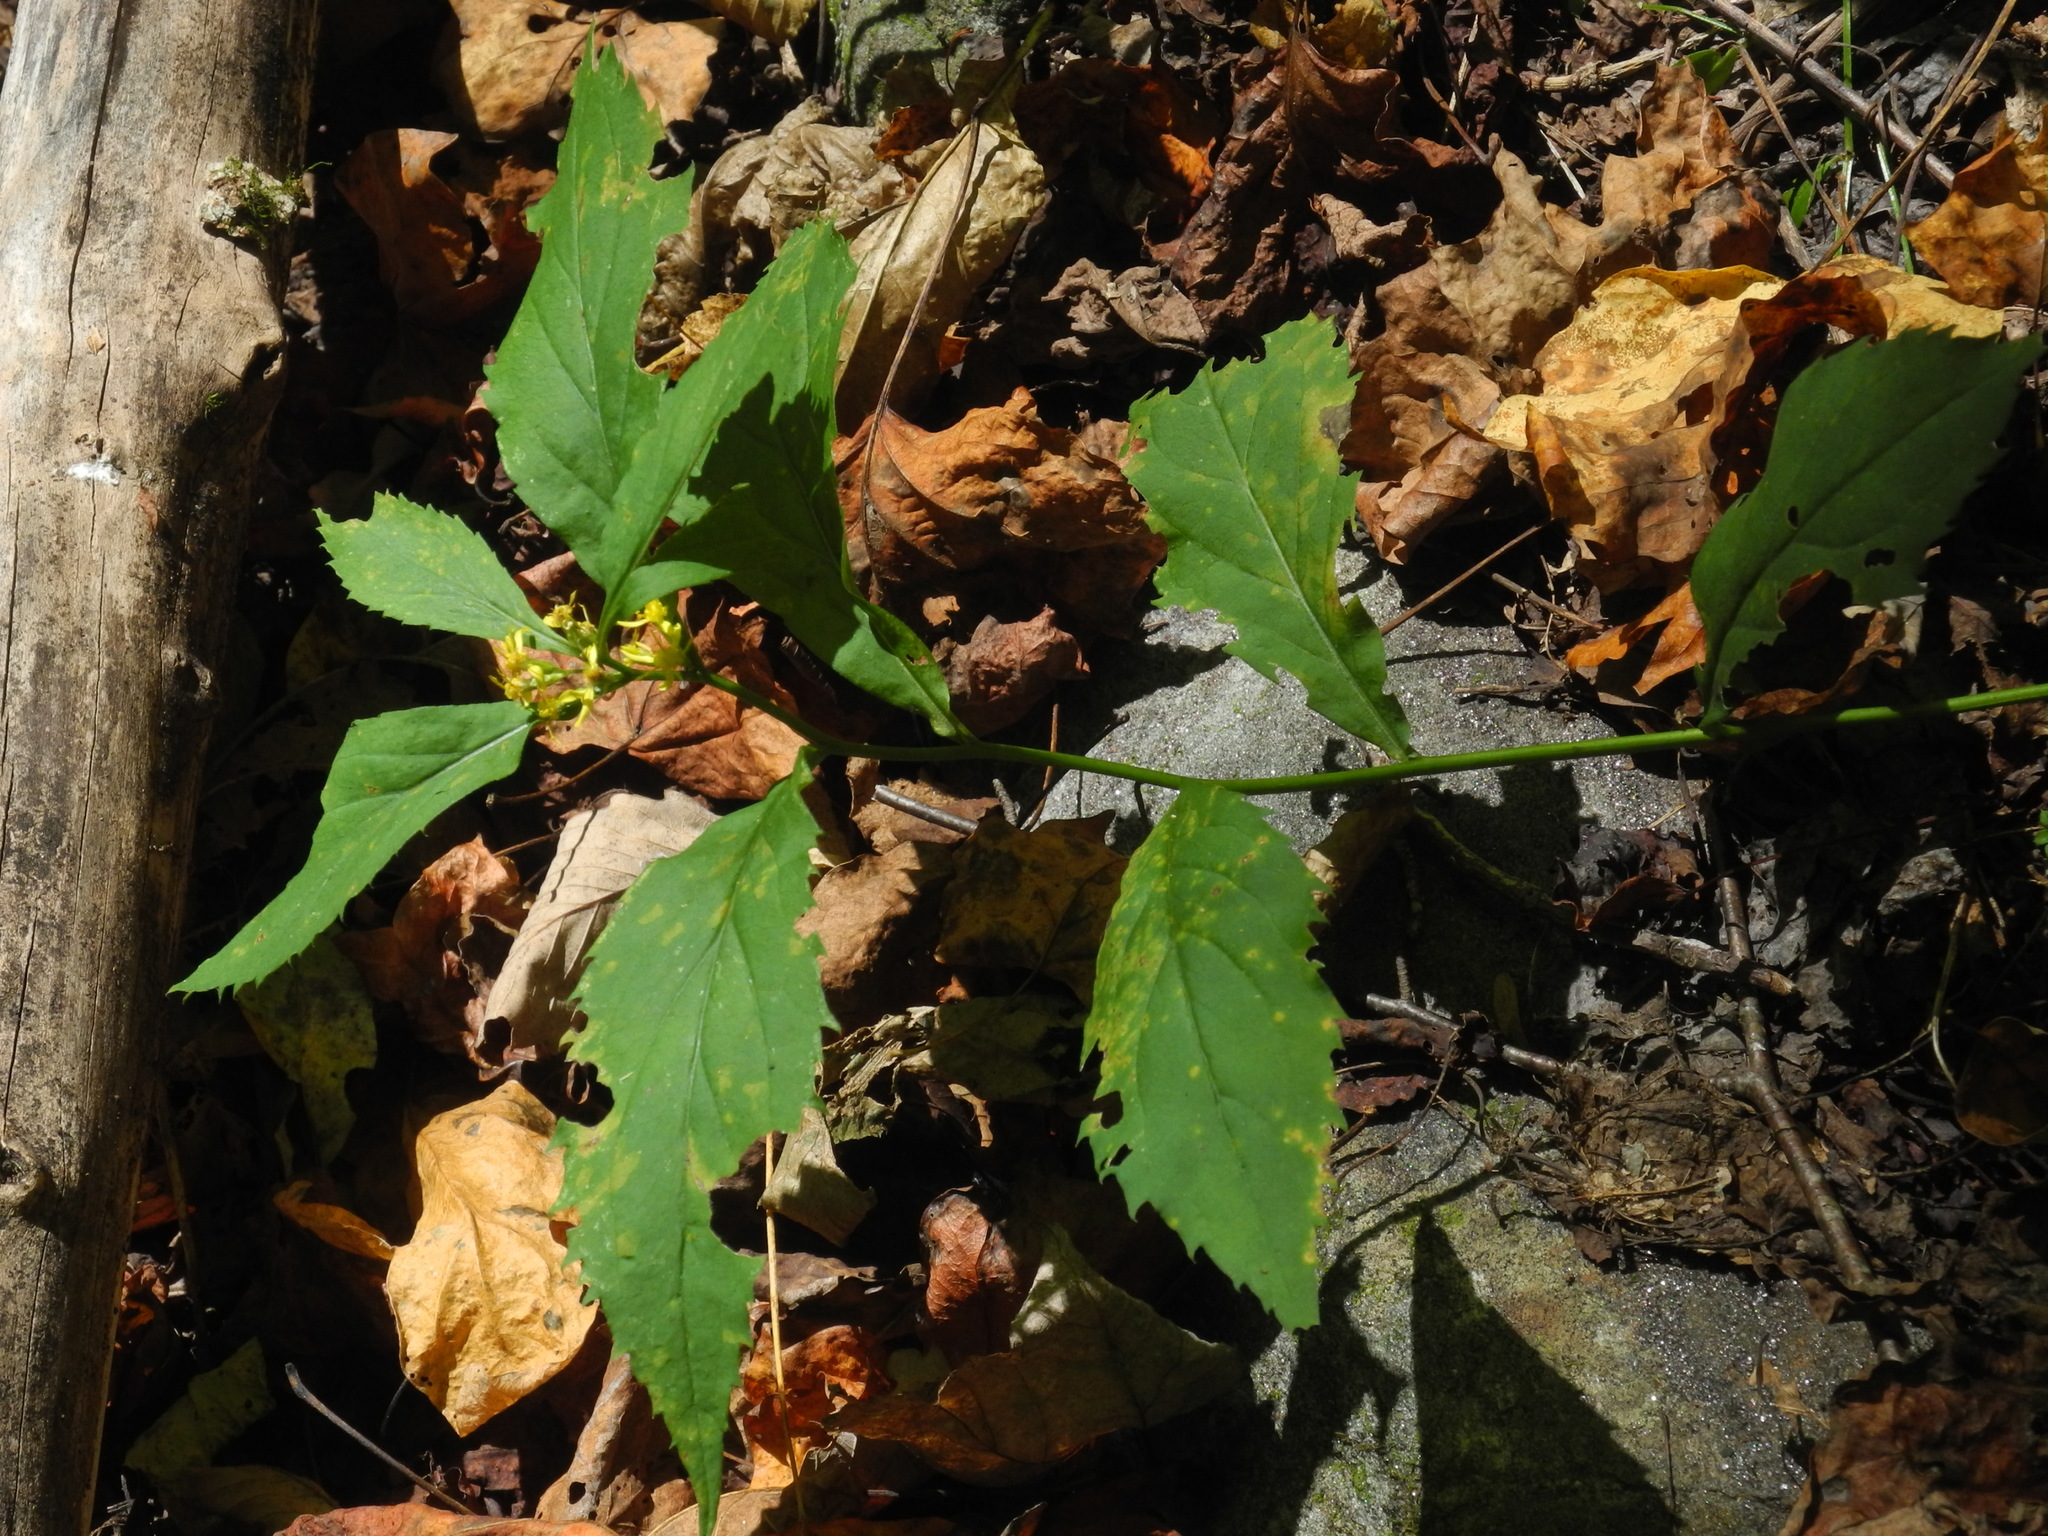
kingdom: Plantae
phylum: Tracheophyta
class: Magnoliopsida
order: Asterales
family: Asteraceae
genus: Solidago
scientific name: Solidago flexicaulis
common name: Zig-zag goldenrod
